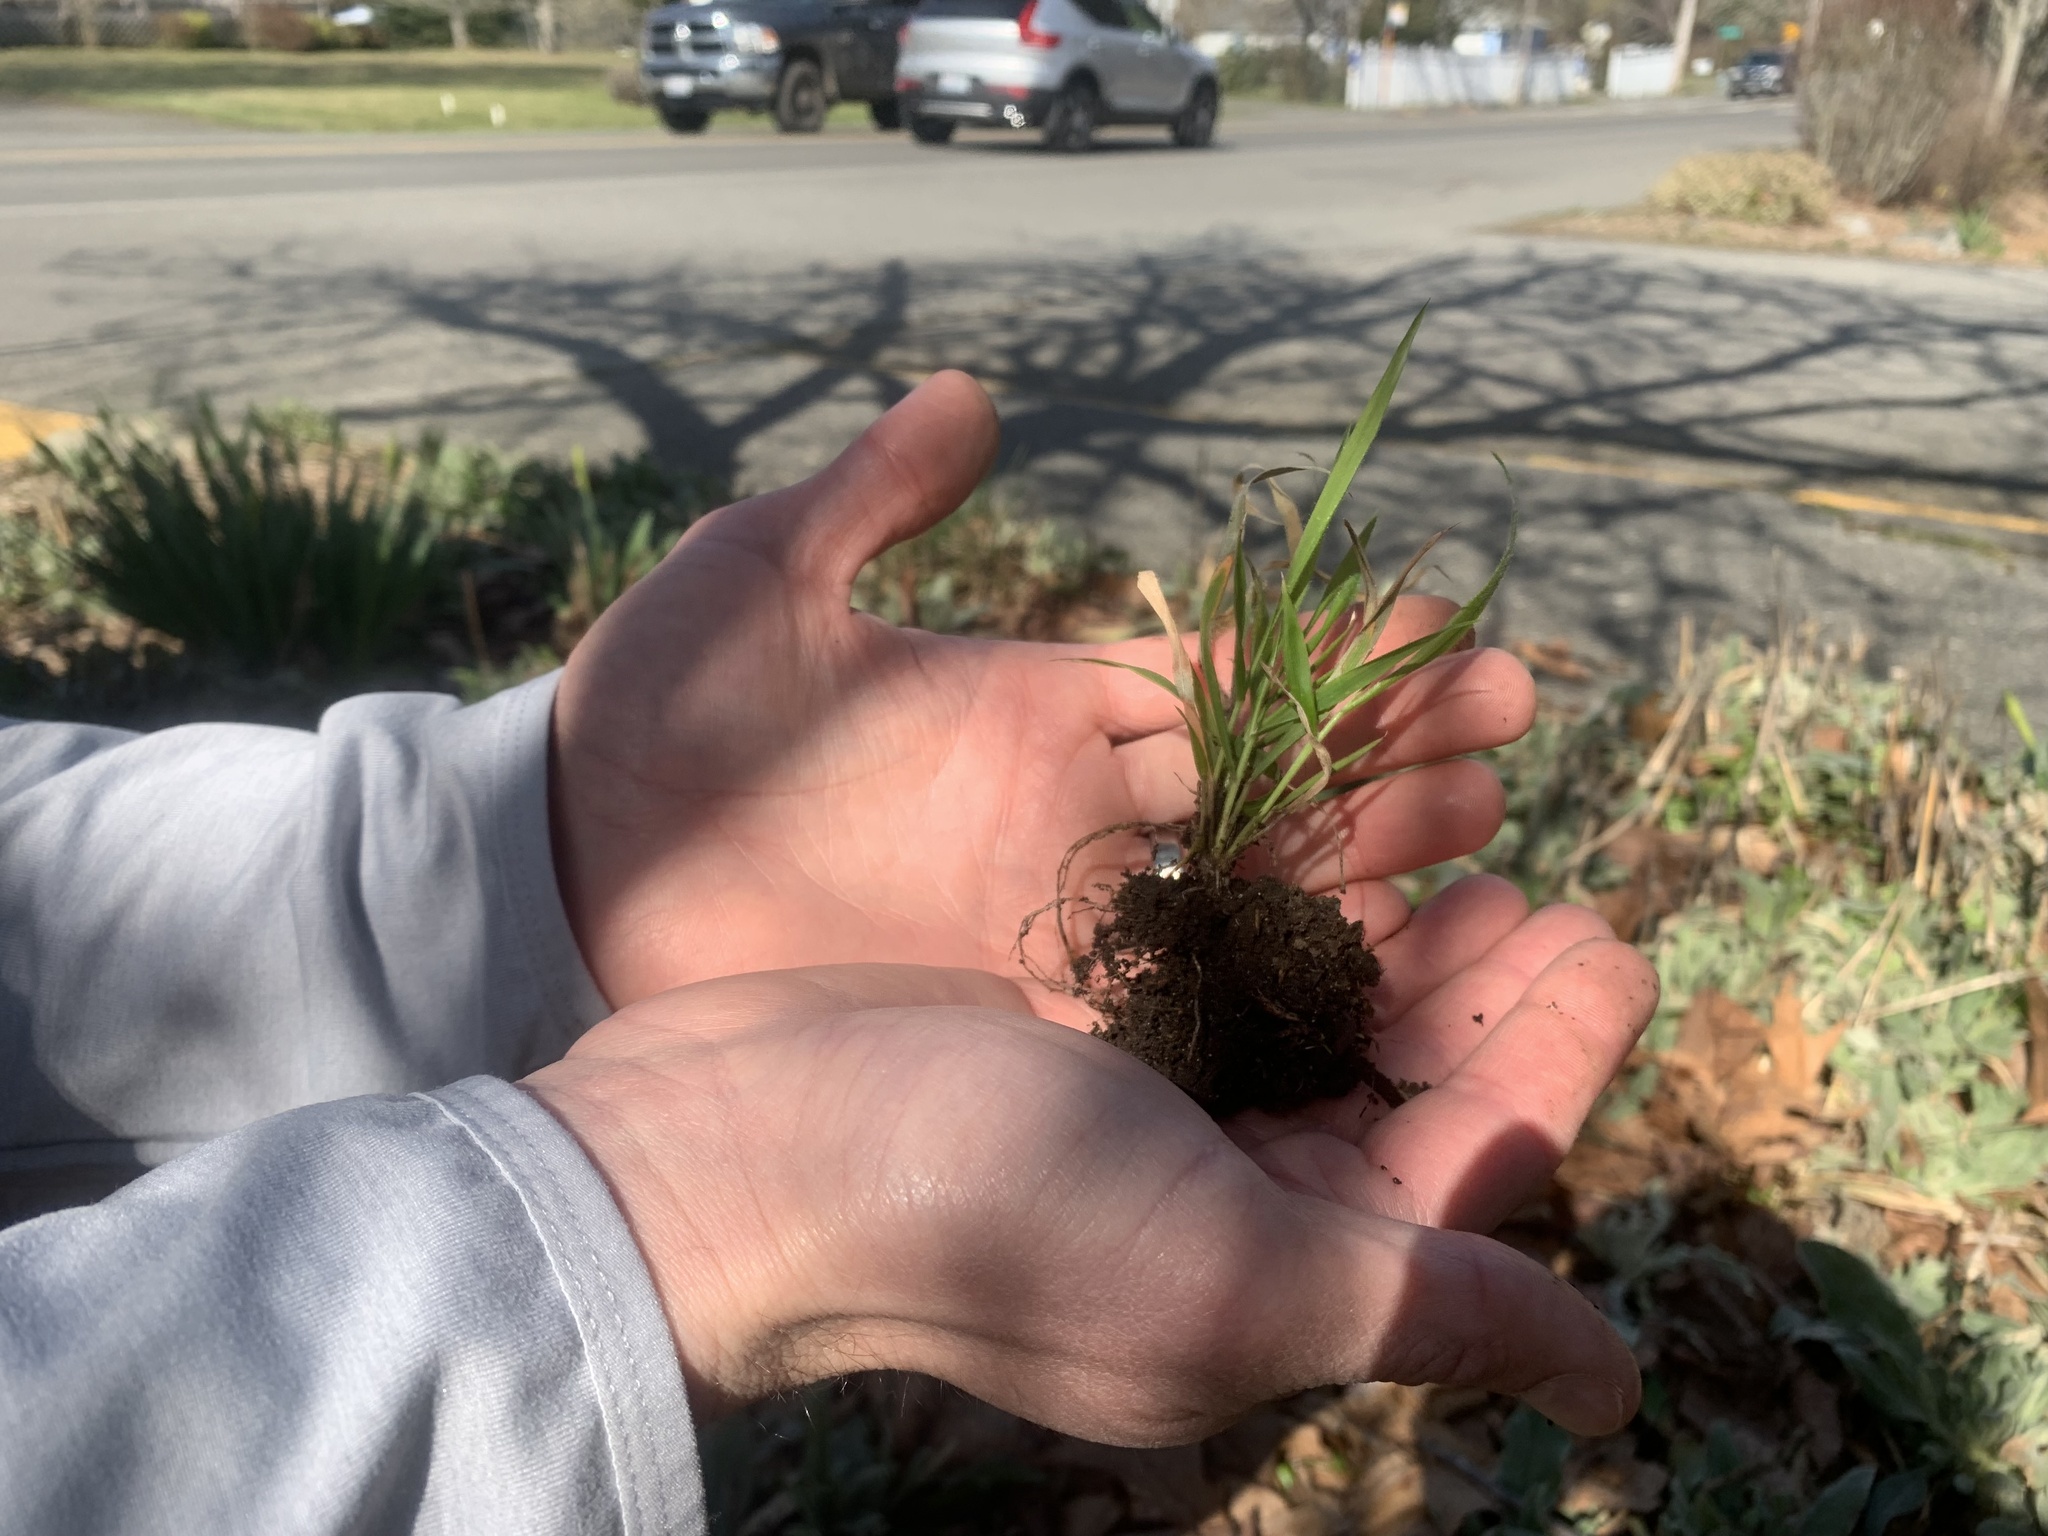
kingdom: Plantae
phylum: Tracheophyta
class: Liliopsida
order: Poales
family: Poaceae
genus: Brachypodium
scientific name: Brachypodium sylvaticum
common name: False-brome
